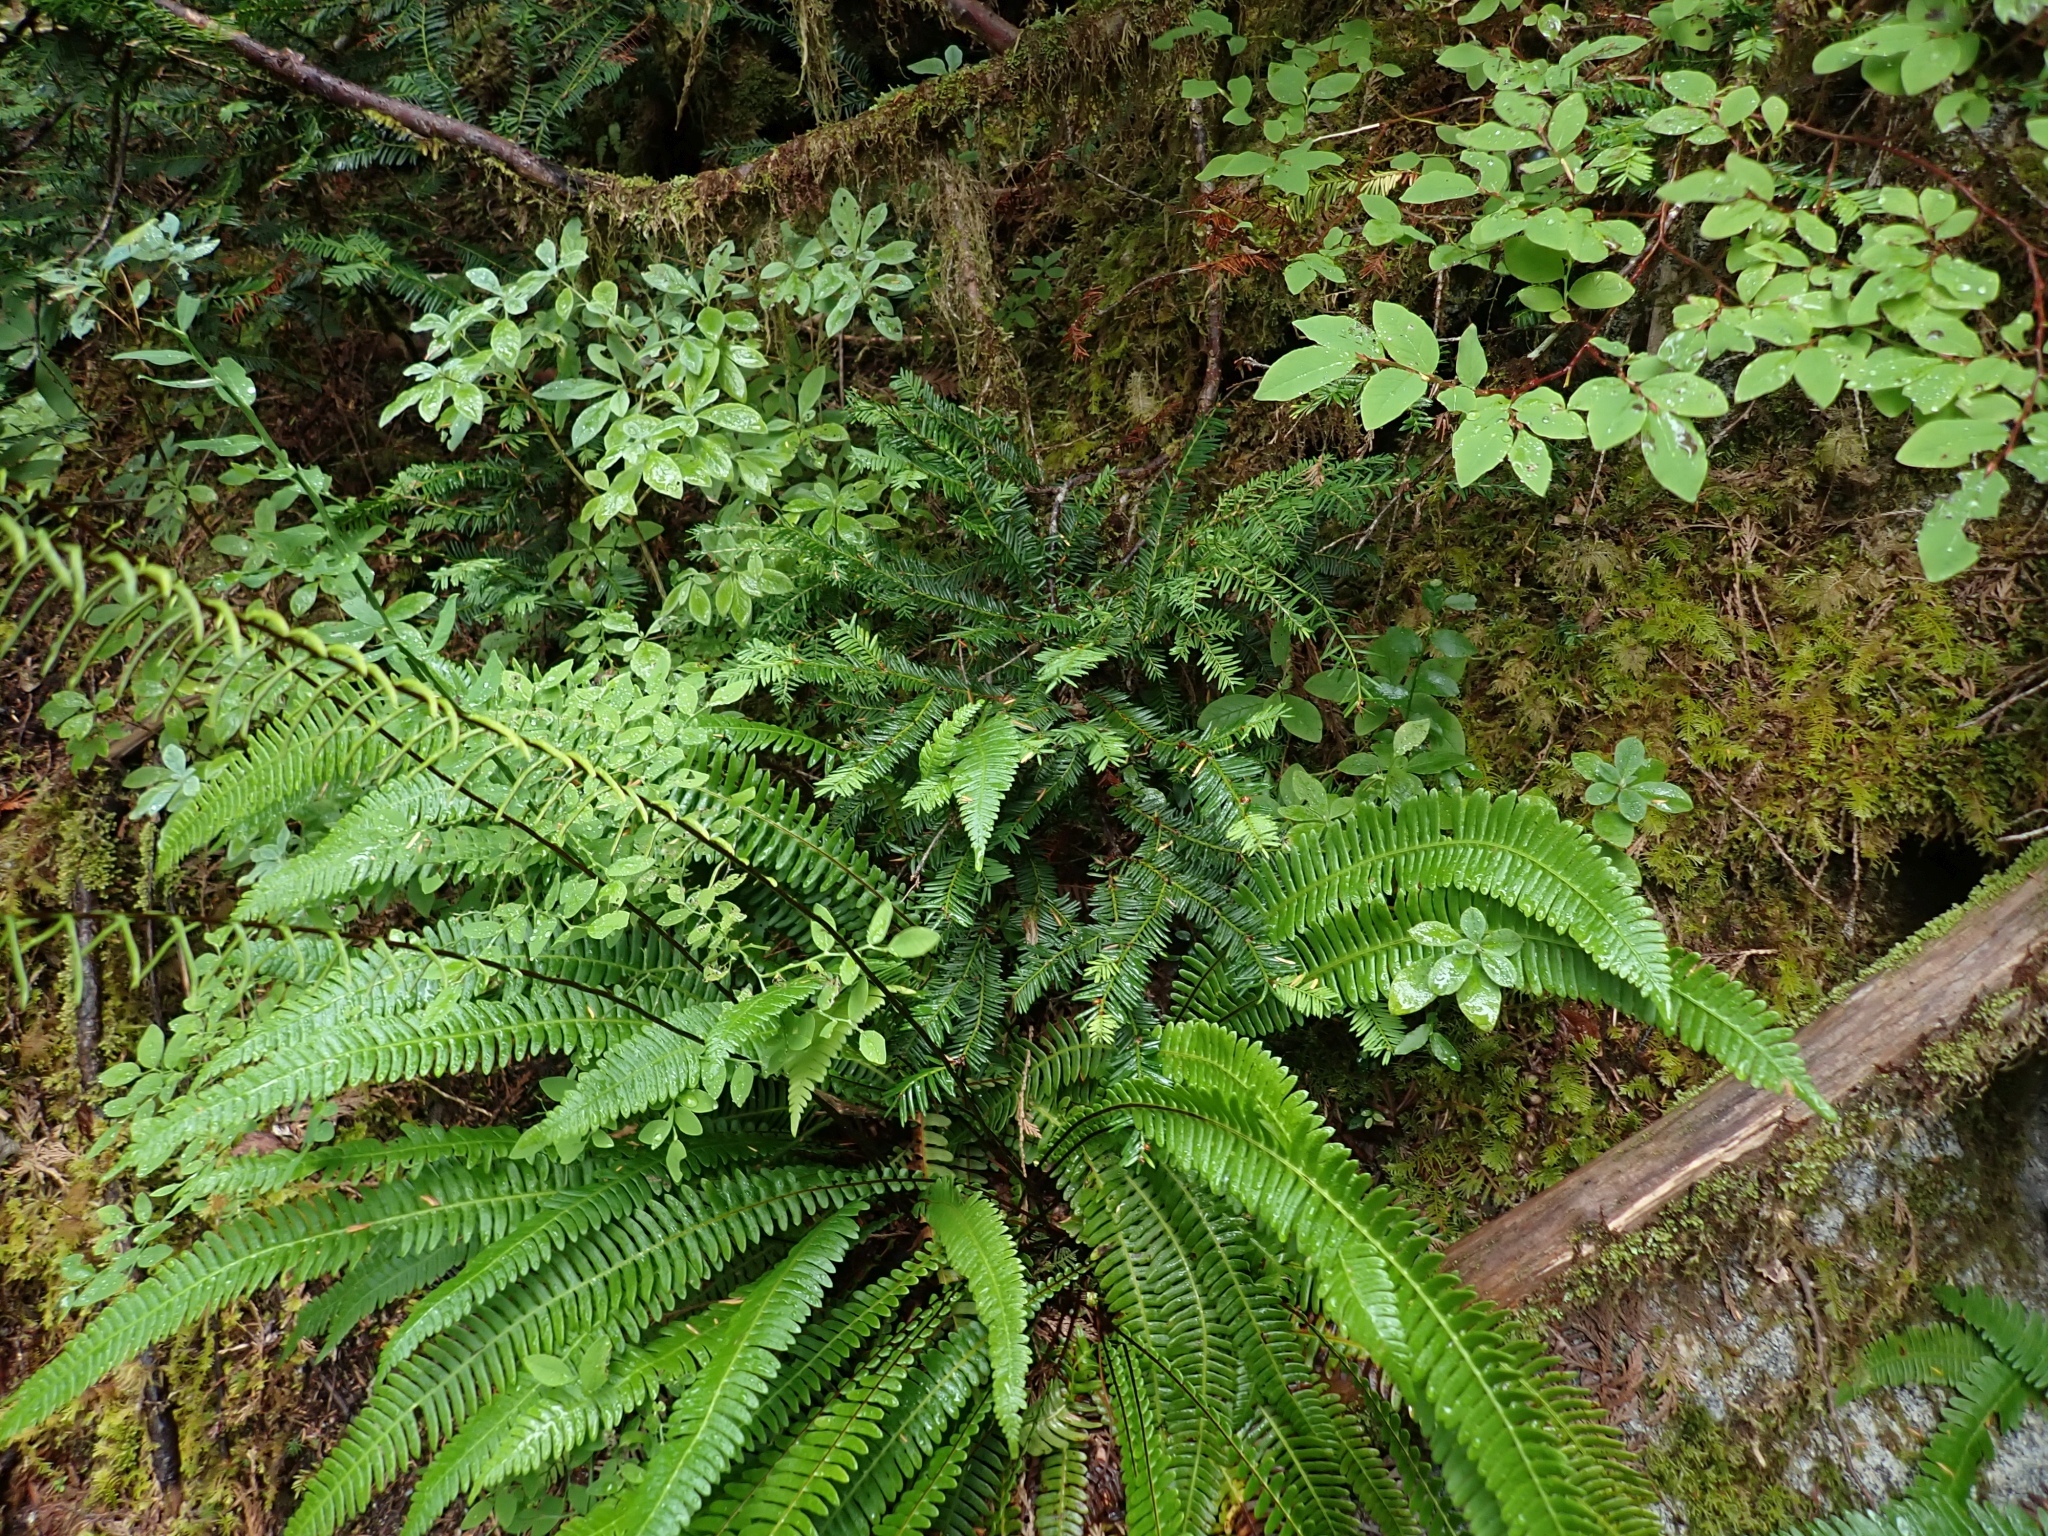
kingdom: Plantae
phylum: Tracheophyta
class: Pinopsida
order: Pinales
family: Taxaceae
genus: Taxus
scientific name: Taxus brevifolia
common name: Pacific yew
